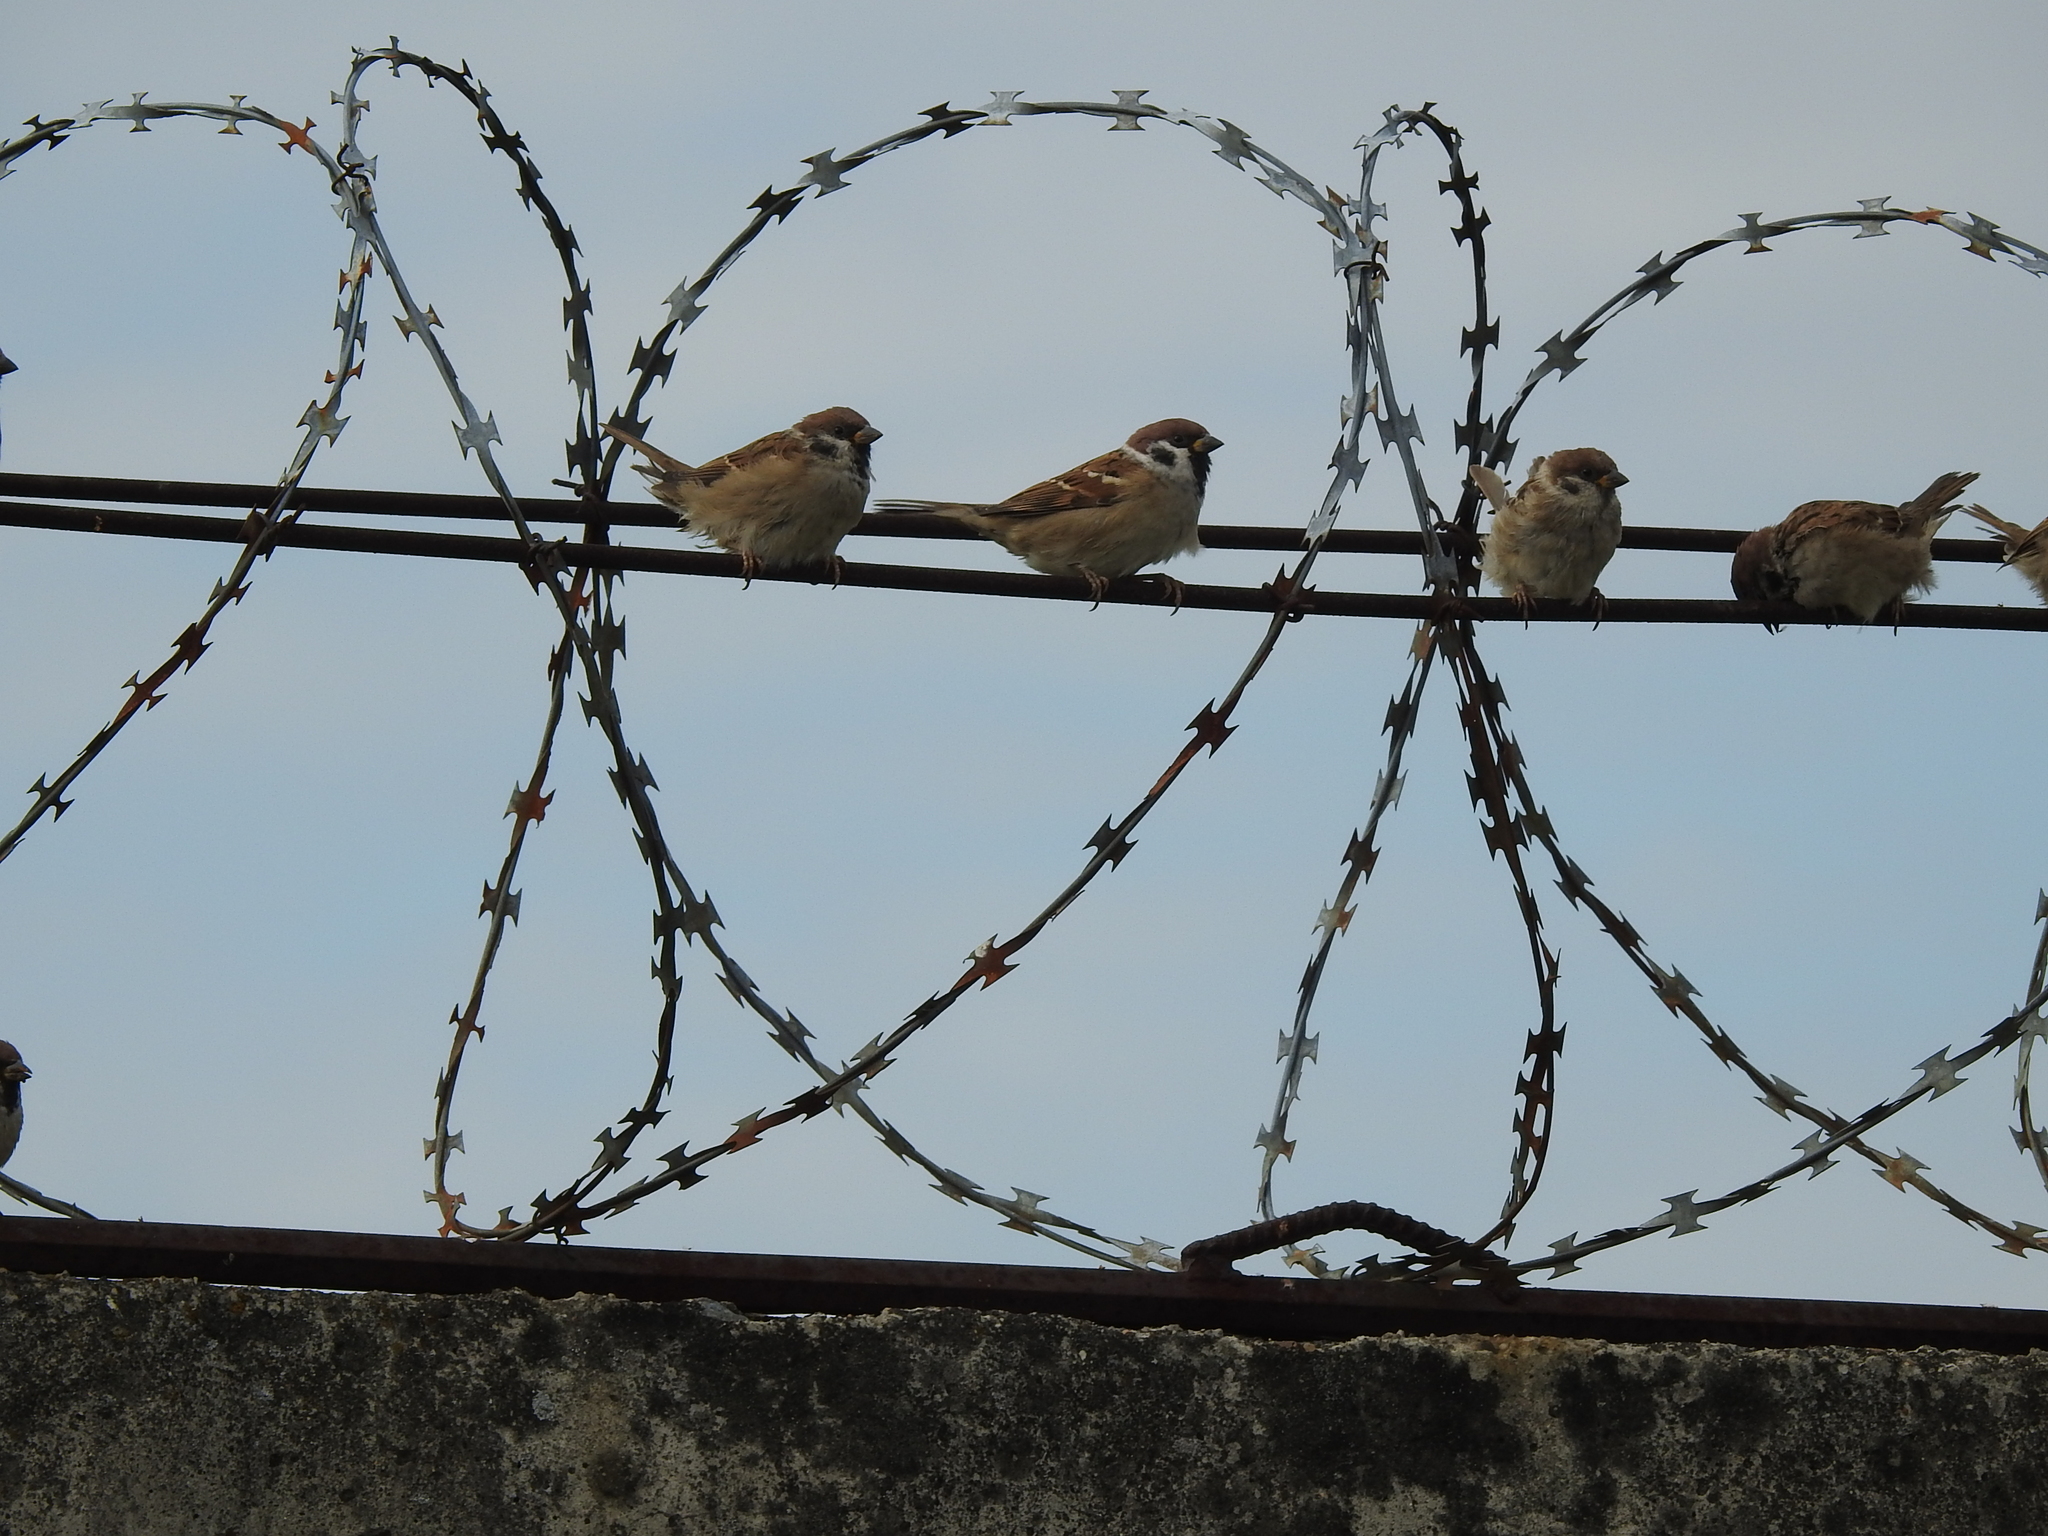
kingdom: Animalia
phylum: Chordata
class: Aves
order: Passeriformes
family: Passeridae
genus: Passer
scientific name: Passer montanus
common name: Eurasian tree sparrow
